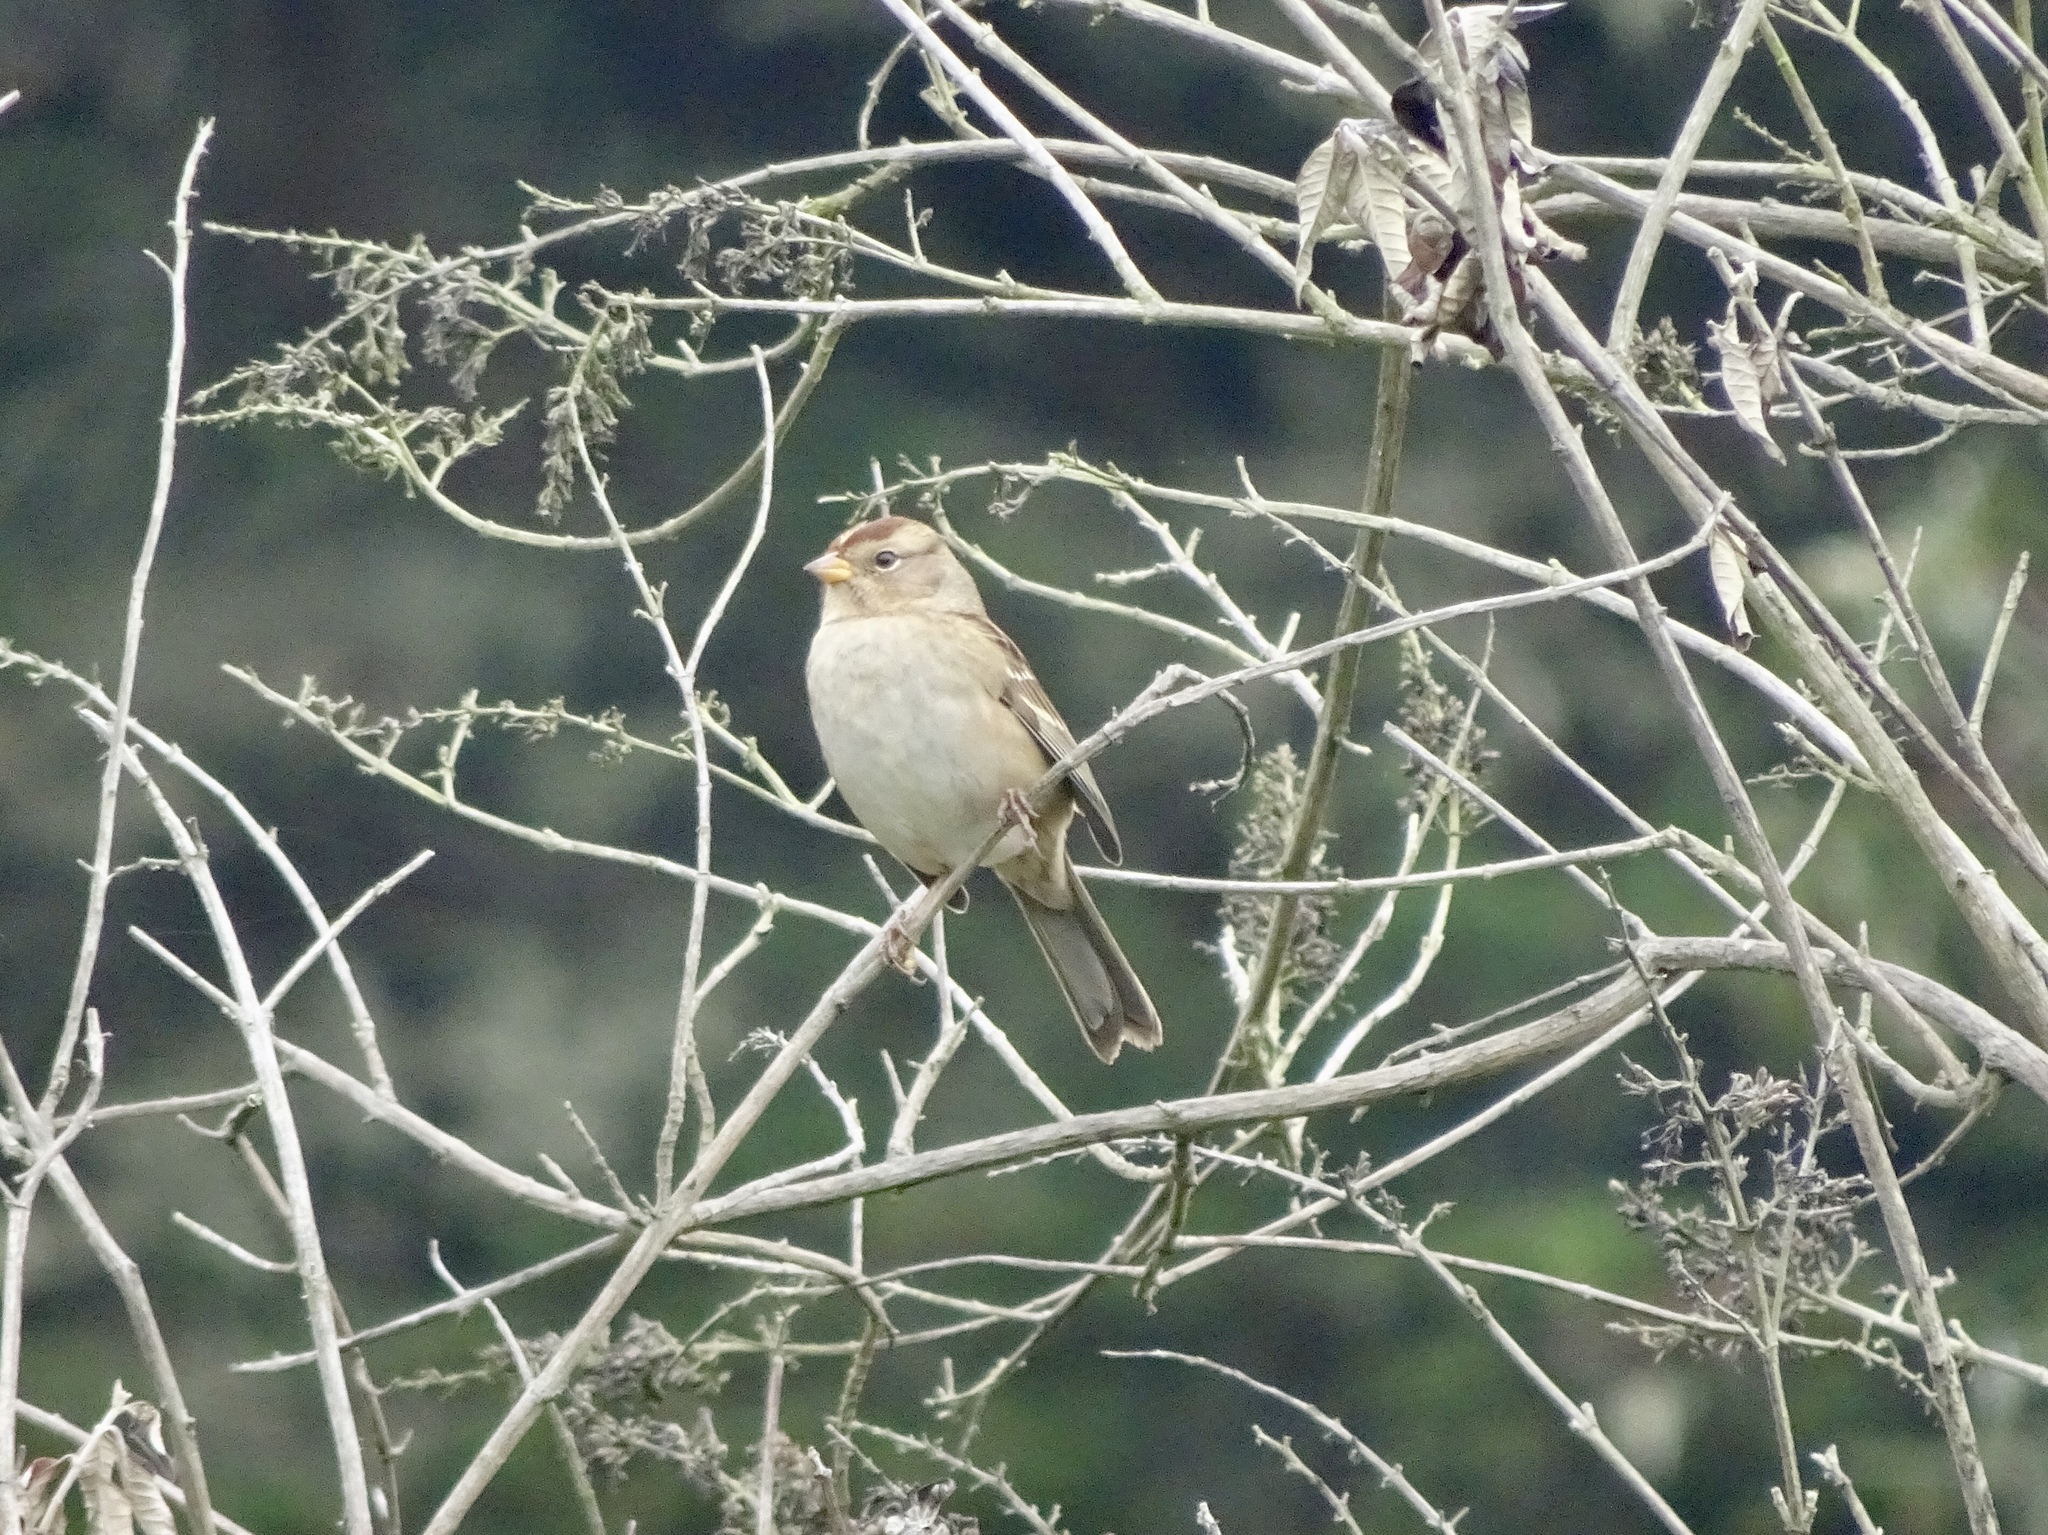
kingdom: Animalia
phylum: Chordata
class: Aves
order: Passeriformes
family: Passerellidae
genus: Zonotrichia
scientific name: Zonotrichia leucophrys
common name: White-crowned sparrow
